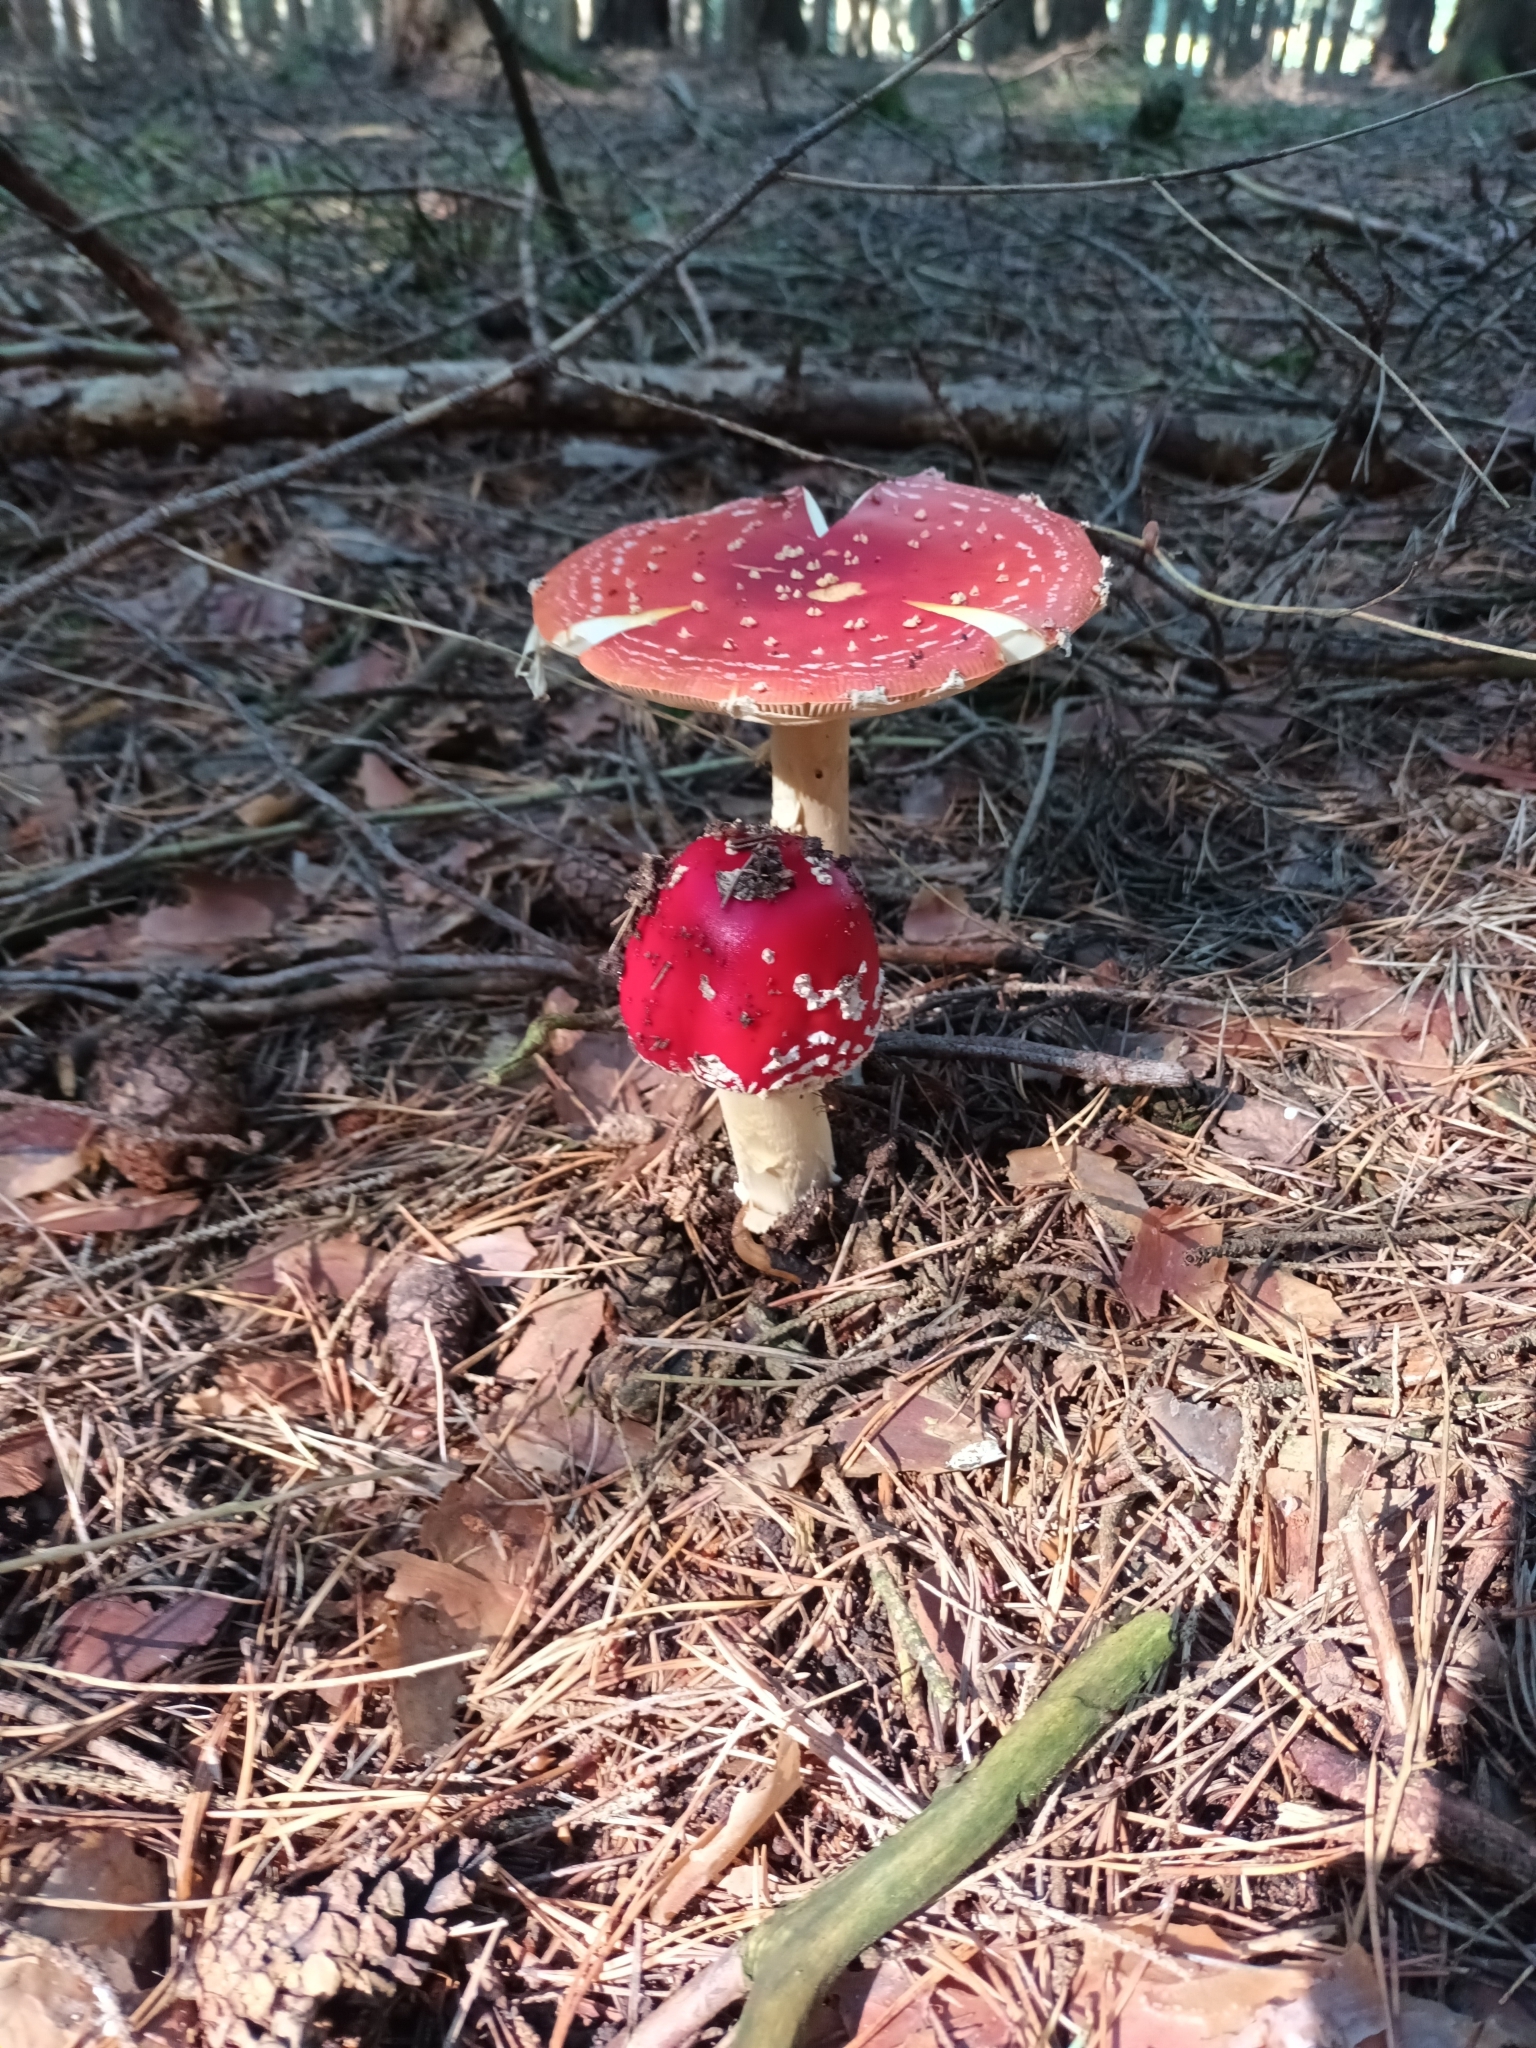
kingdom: Fungi
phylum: Basidiomycota
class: Agaricomycetes
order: Agaricales
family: Amanitaceae
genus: Amanita
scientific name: Amanita muscaria
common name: Fly agaric
